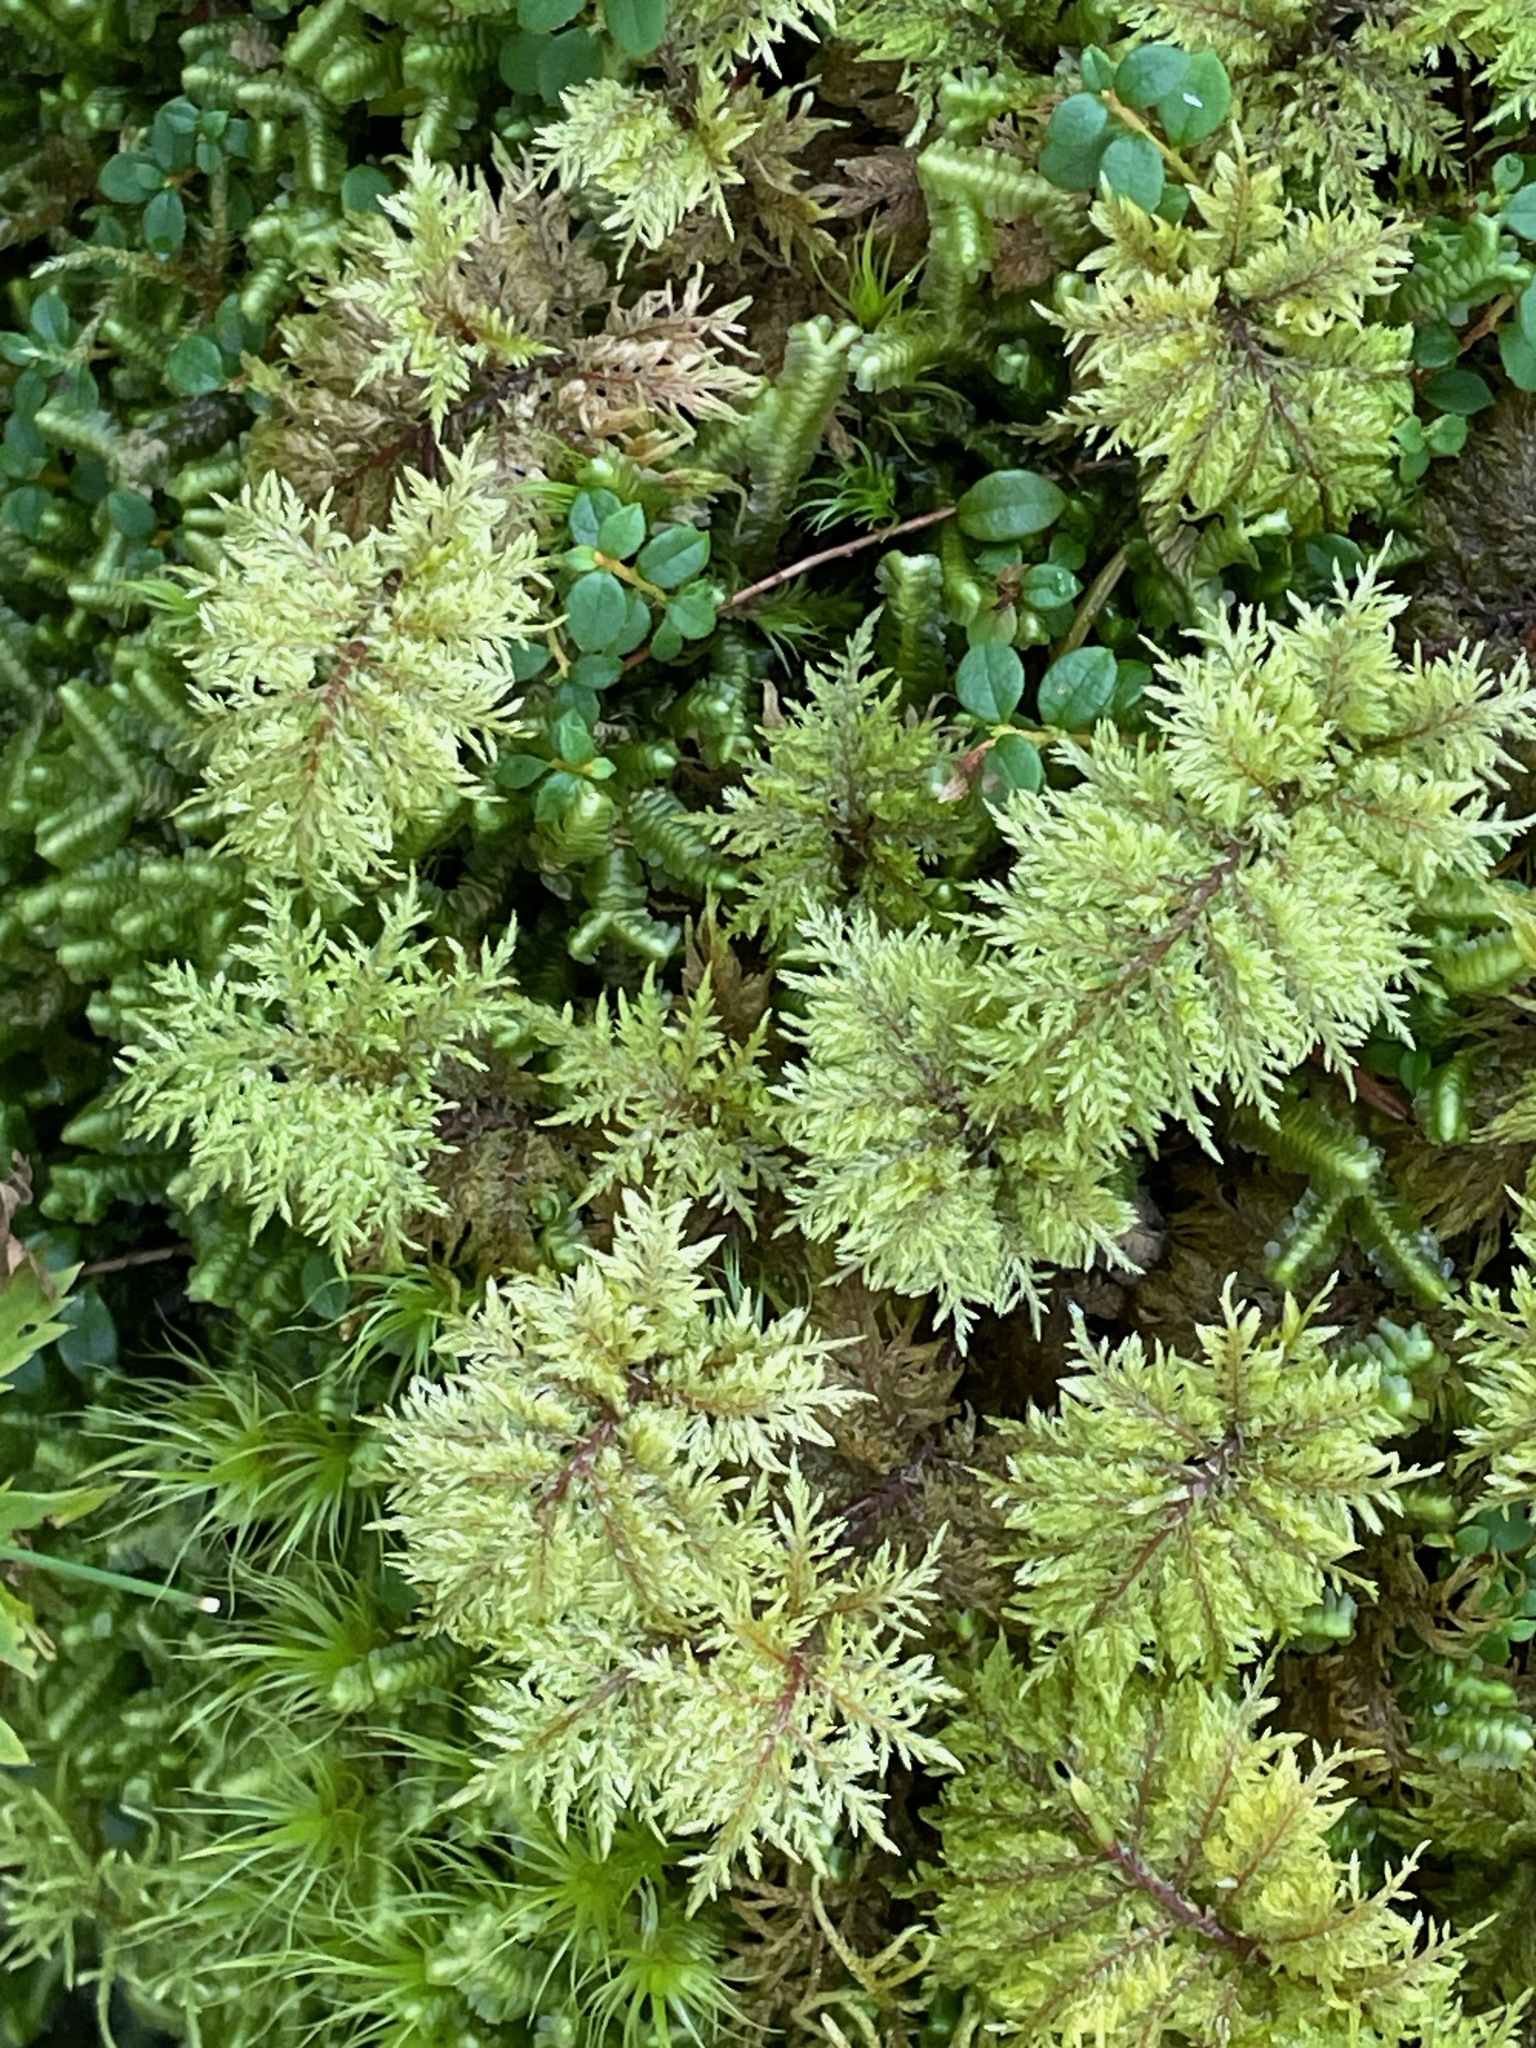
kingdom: Plantae
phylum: Bryophyta
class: Bryopsida
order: Hypnales
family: Hylocomiaceae
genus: Hylocomium
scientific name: Hylocomium splendens
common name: Stairstep moss
